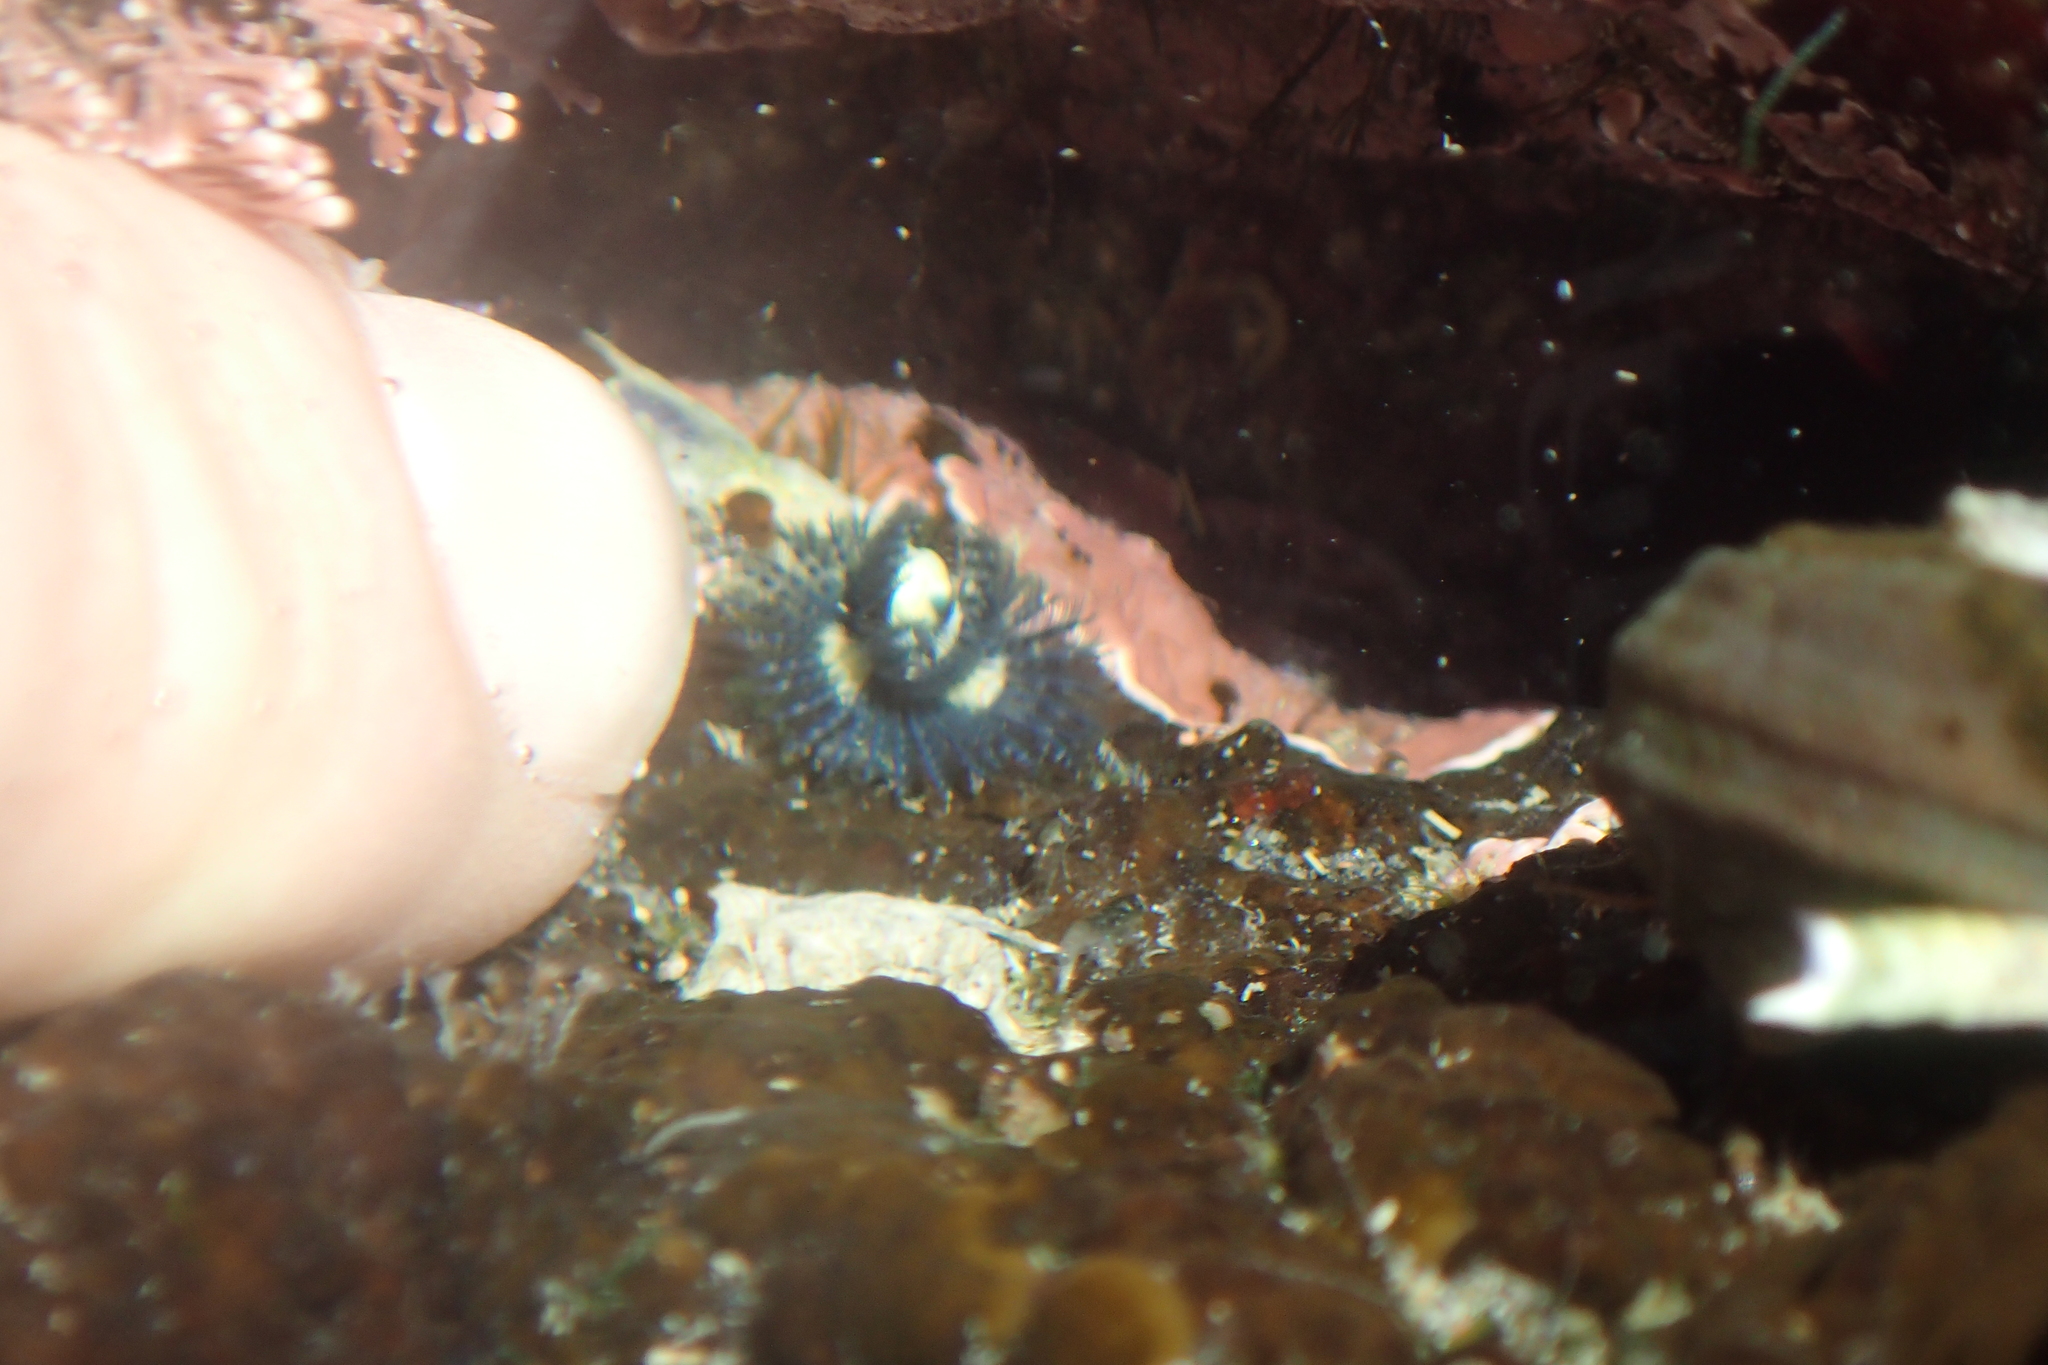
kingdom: Animalia
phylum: Annelida
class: Polychaeta
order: Sabellida
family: Serpulidae
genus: Spirobranchus
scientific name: Spirobranchus cariniferus
